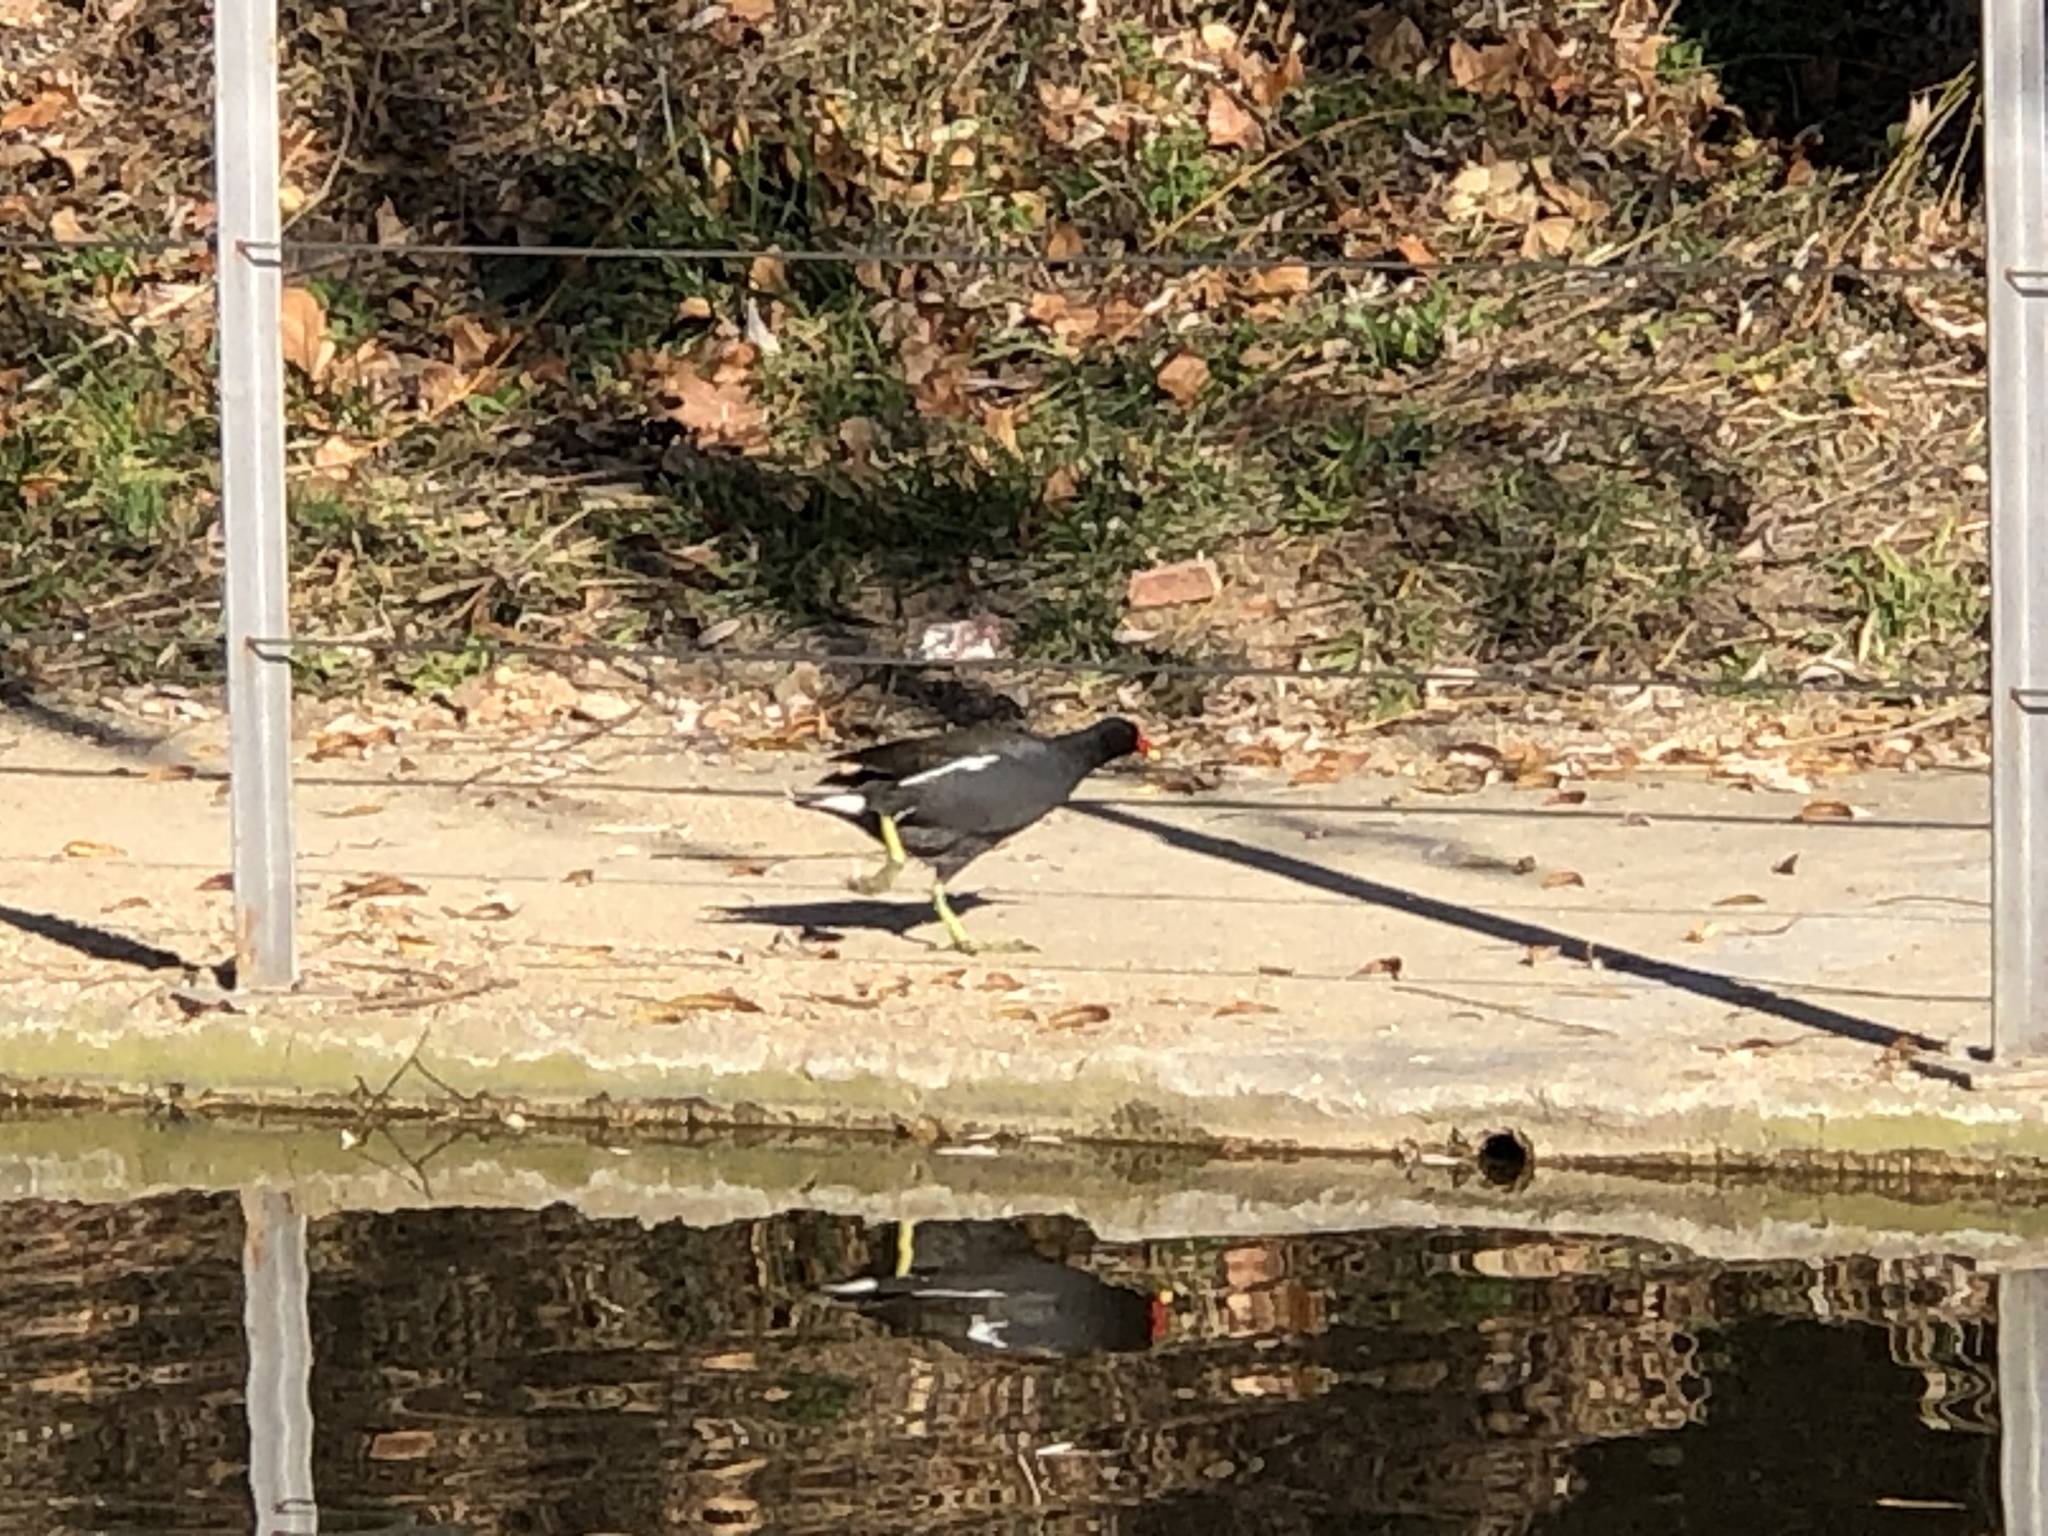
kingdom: Animalia
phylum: Chordata
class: Aves
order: Gruiformes
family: Rallidae
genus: Gallinula
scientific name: Gallinula chloropus
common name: Common moorhen
